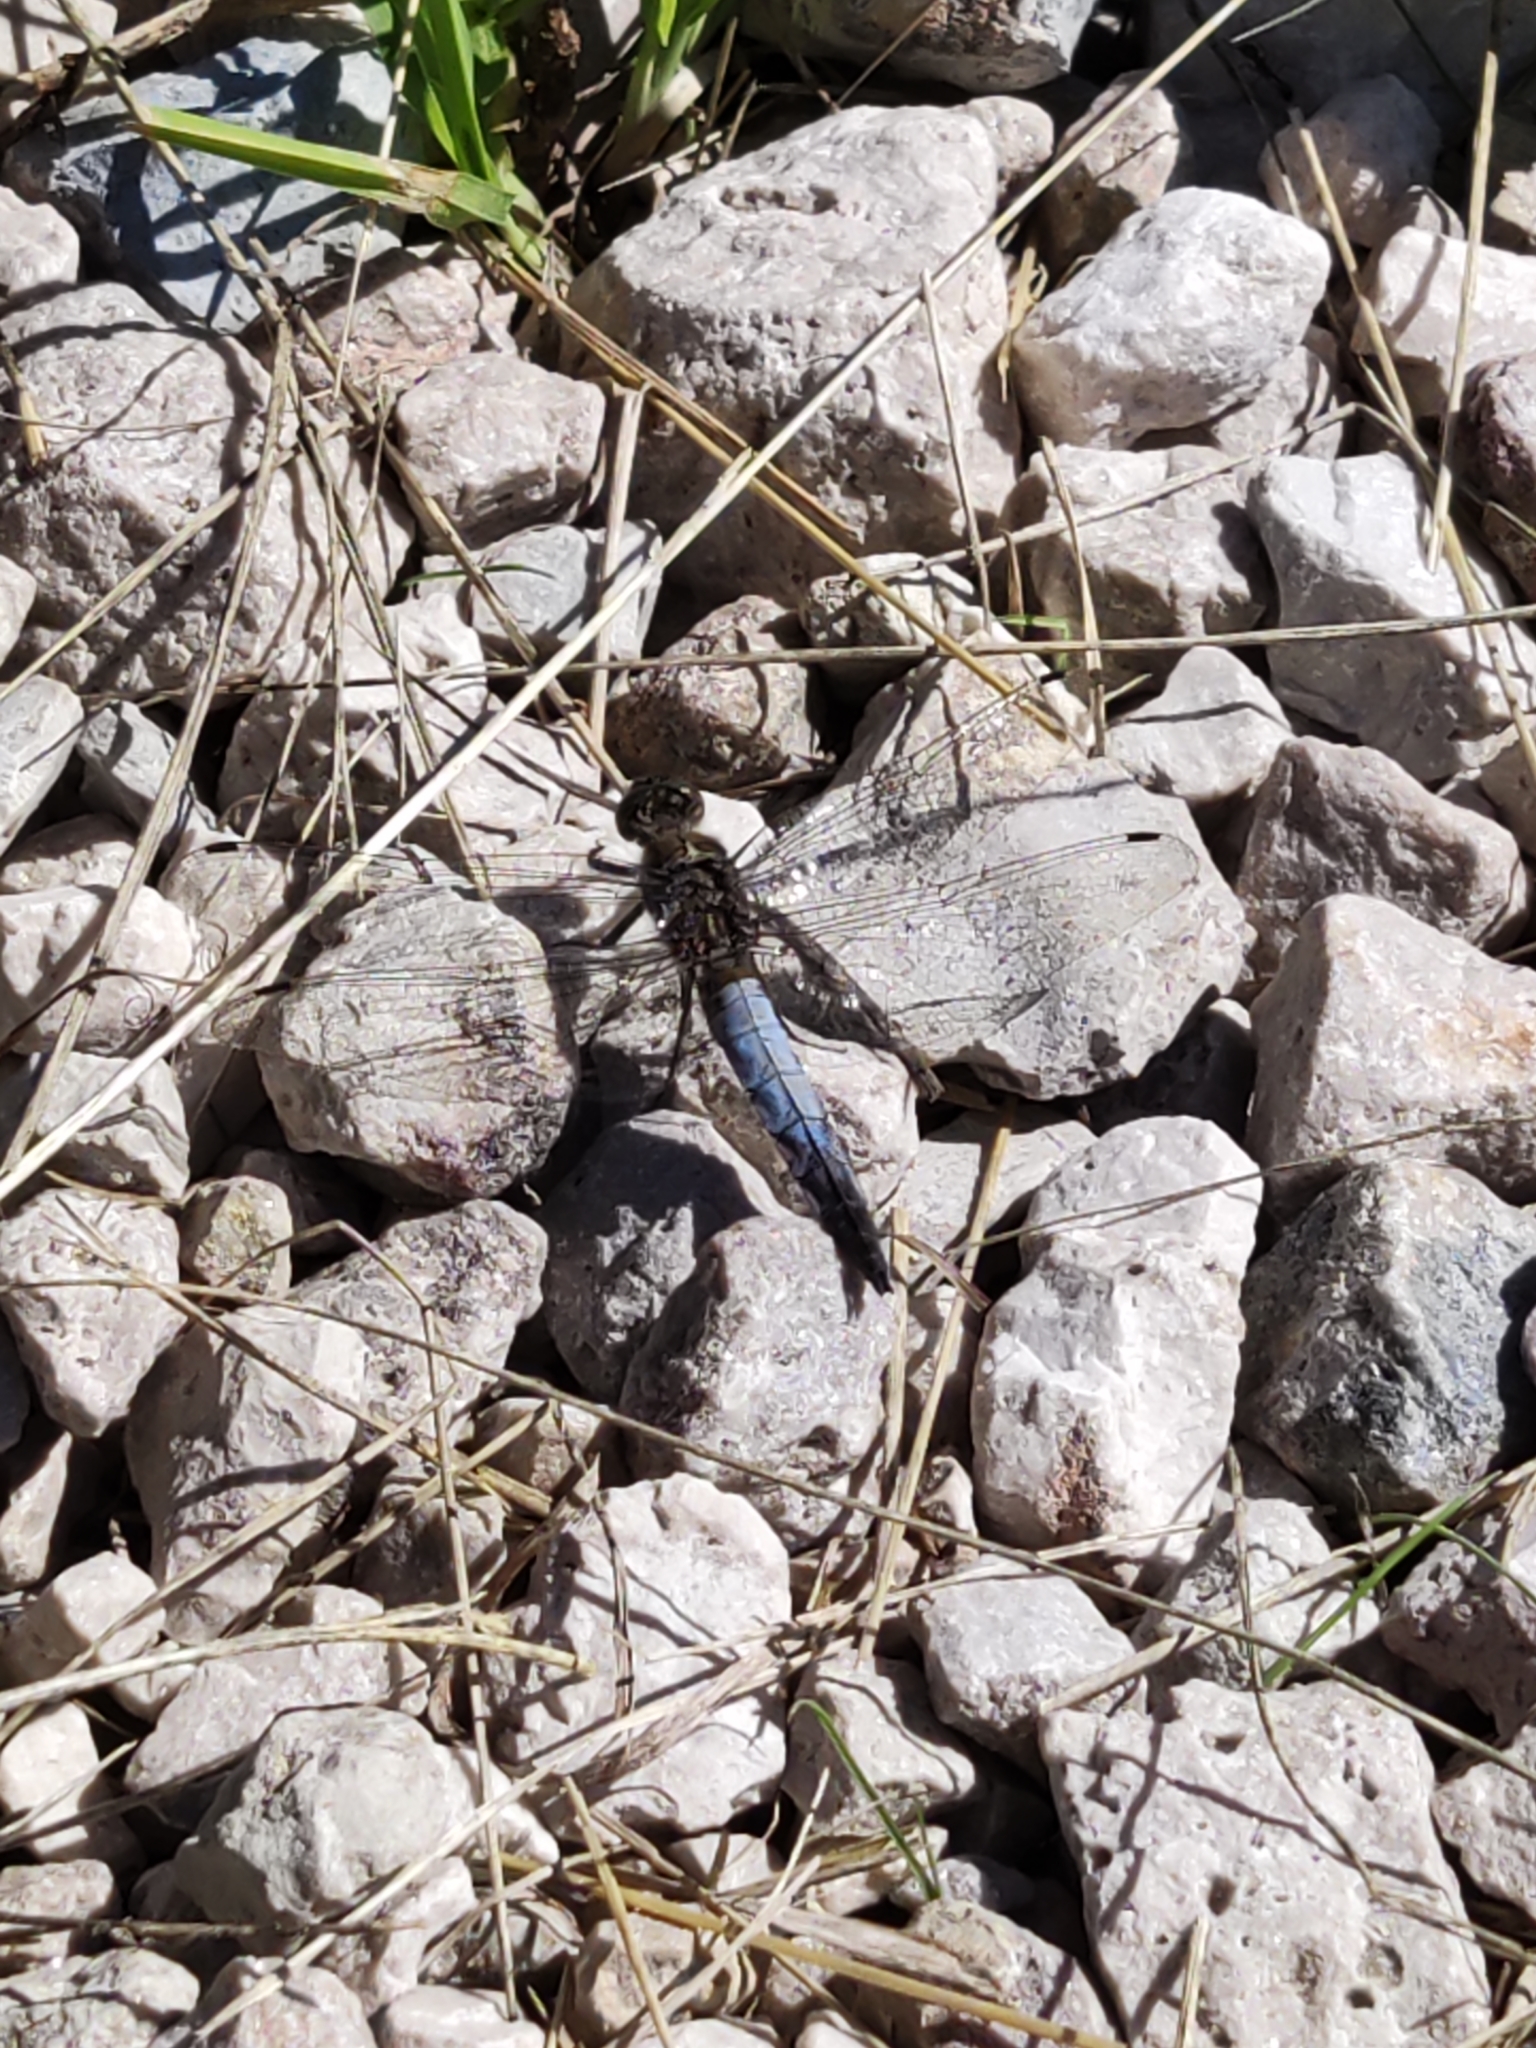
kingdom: Animalia
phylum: Arthropoda
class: Insecta
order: Odonata
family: Libellulidae
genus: Orthetrum
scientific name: Orthetrum cancellatum
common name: Black-tailed skimmer
